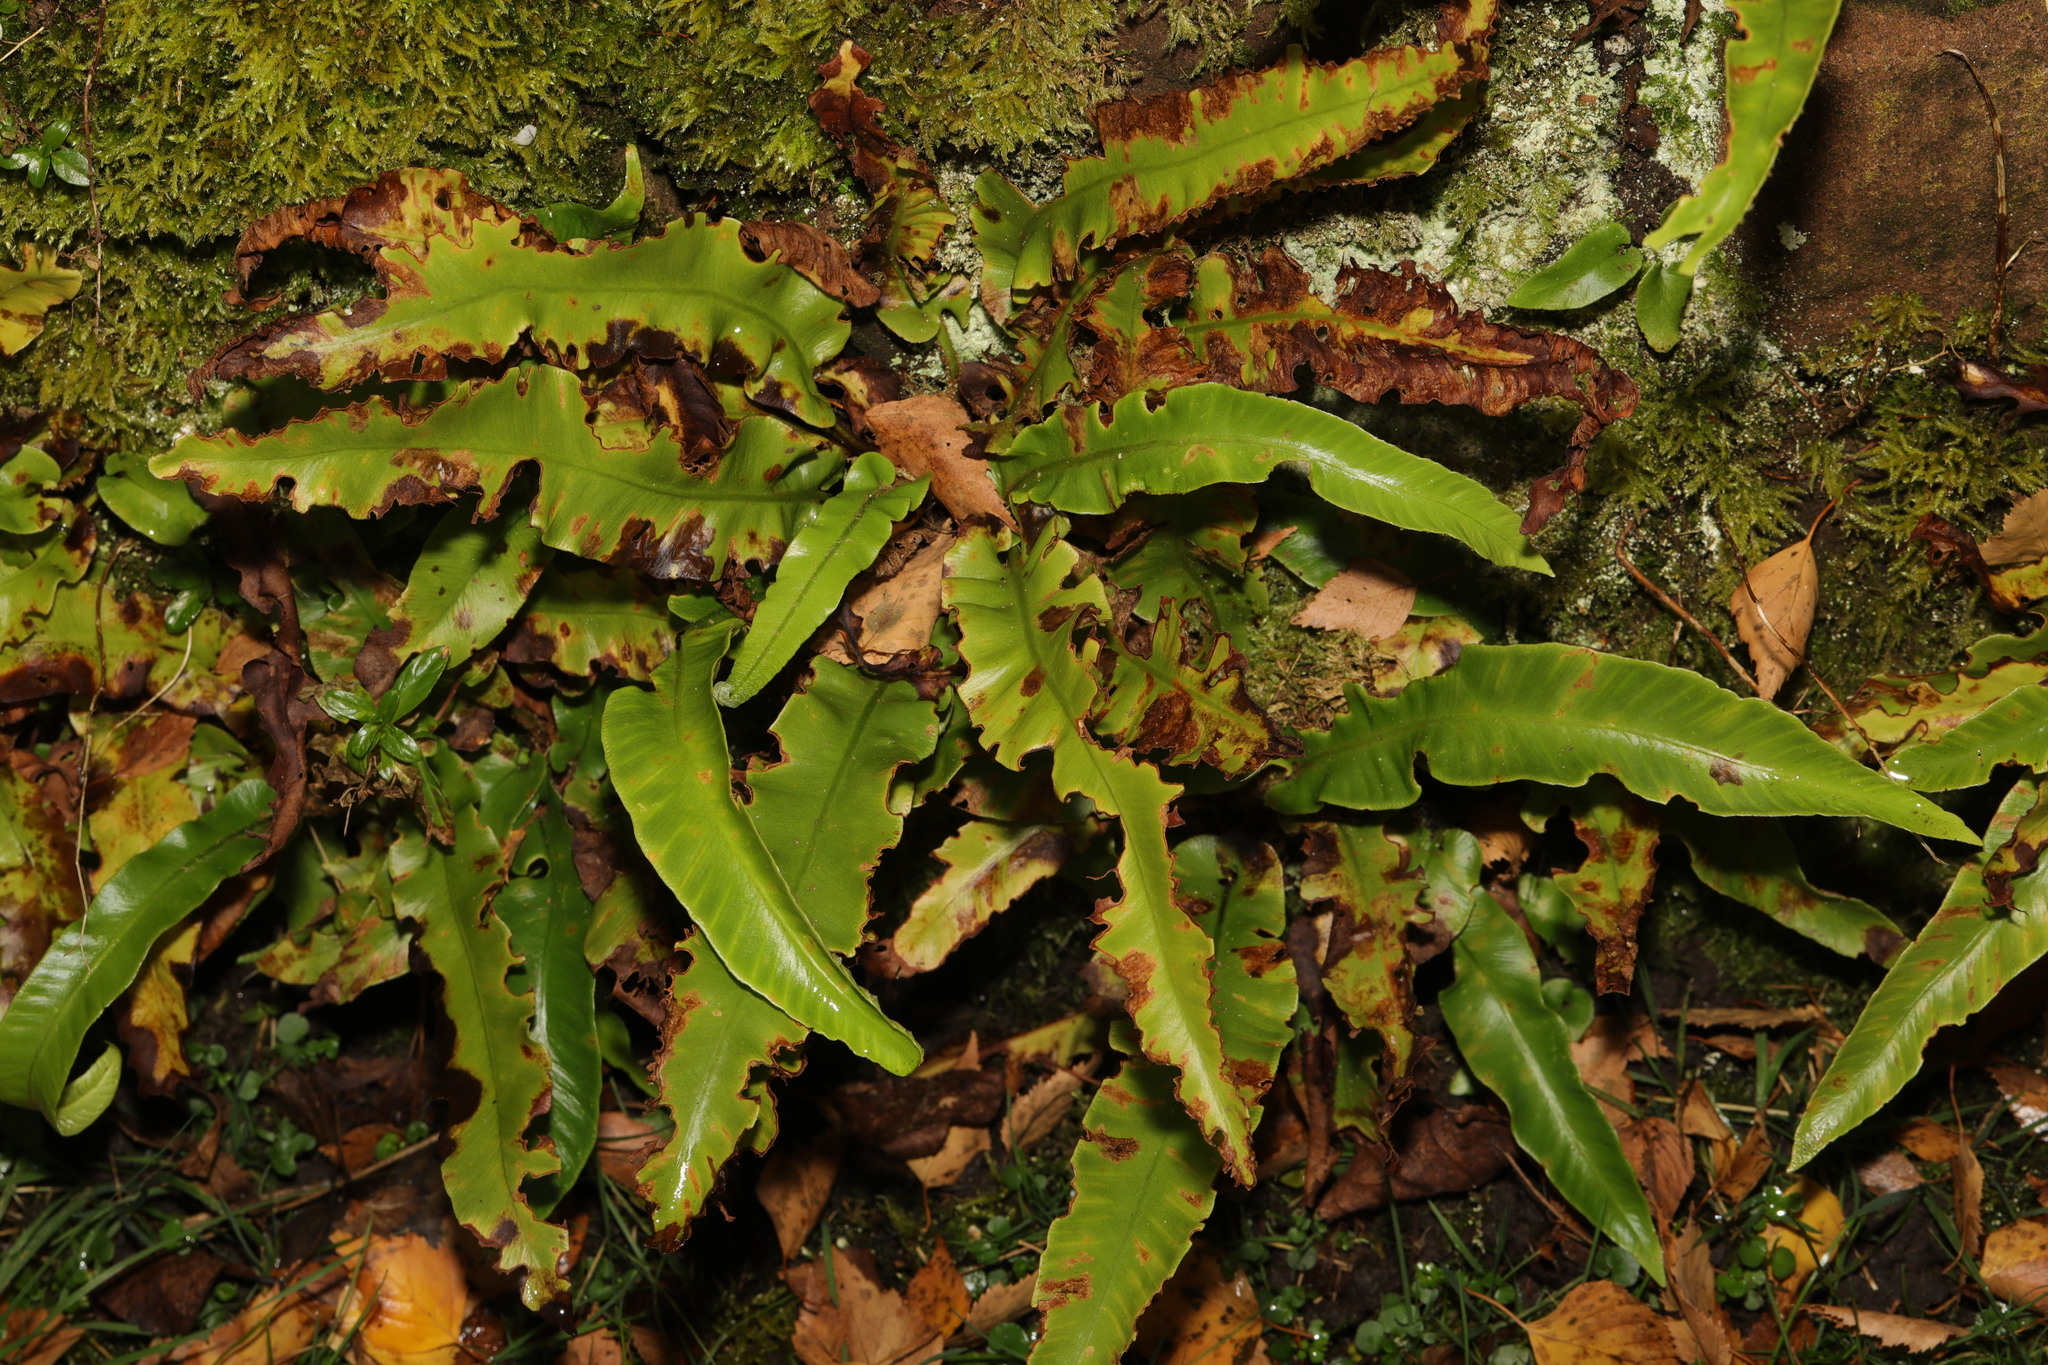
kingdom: Plantae
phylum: Tracheophyta
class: Polypodiopsida
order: Polypodiales
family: Aspleniaceae
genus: Asplenium
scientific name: Asplenium scolopendrium
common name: Hart's-tongue fern
